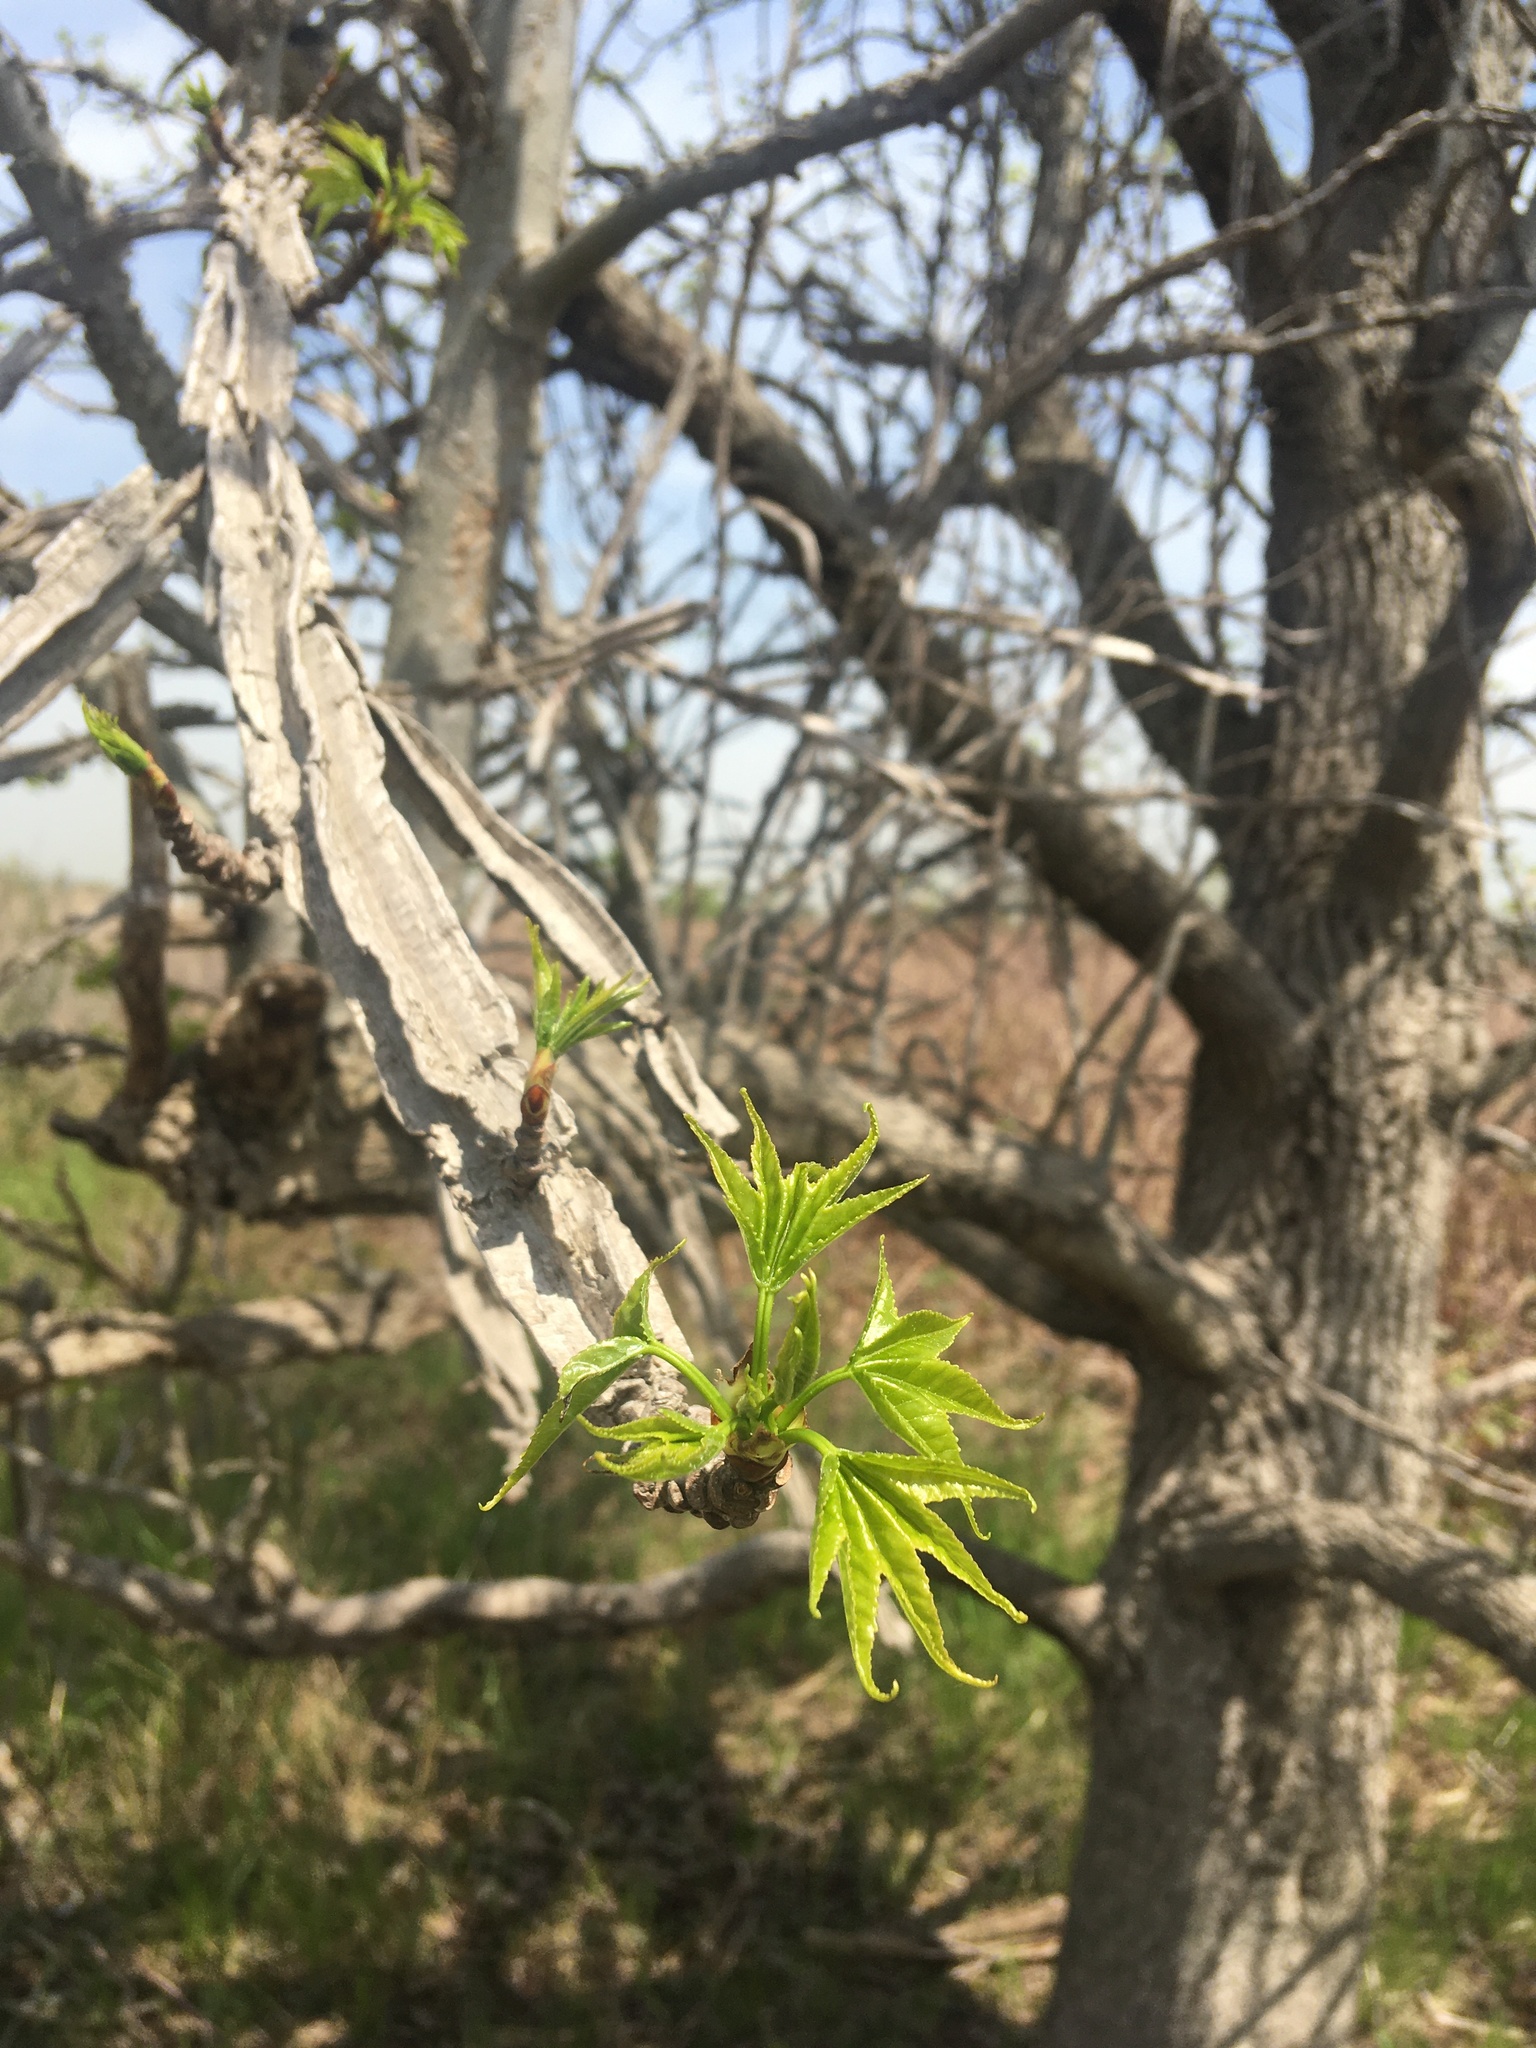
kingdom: Plantae
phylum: Tracheophyta
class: Magnoliopsida
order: Saxifragales
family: Altingiaceae
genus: Liquidambar
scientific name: Liquidambar styraciflua
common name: Sweet gum
